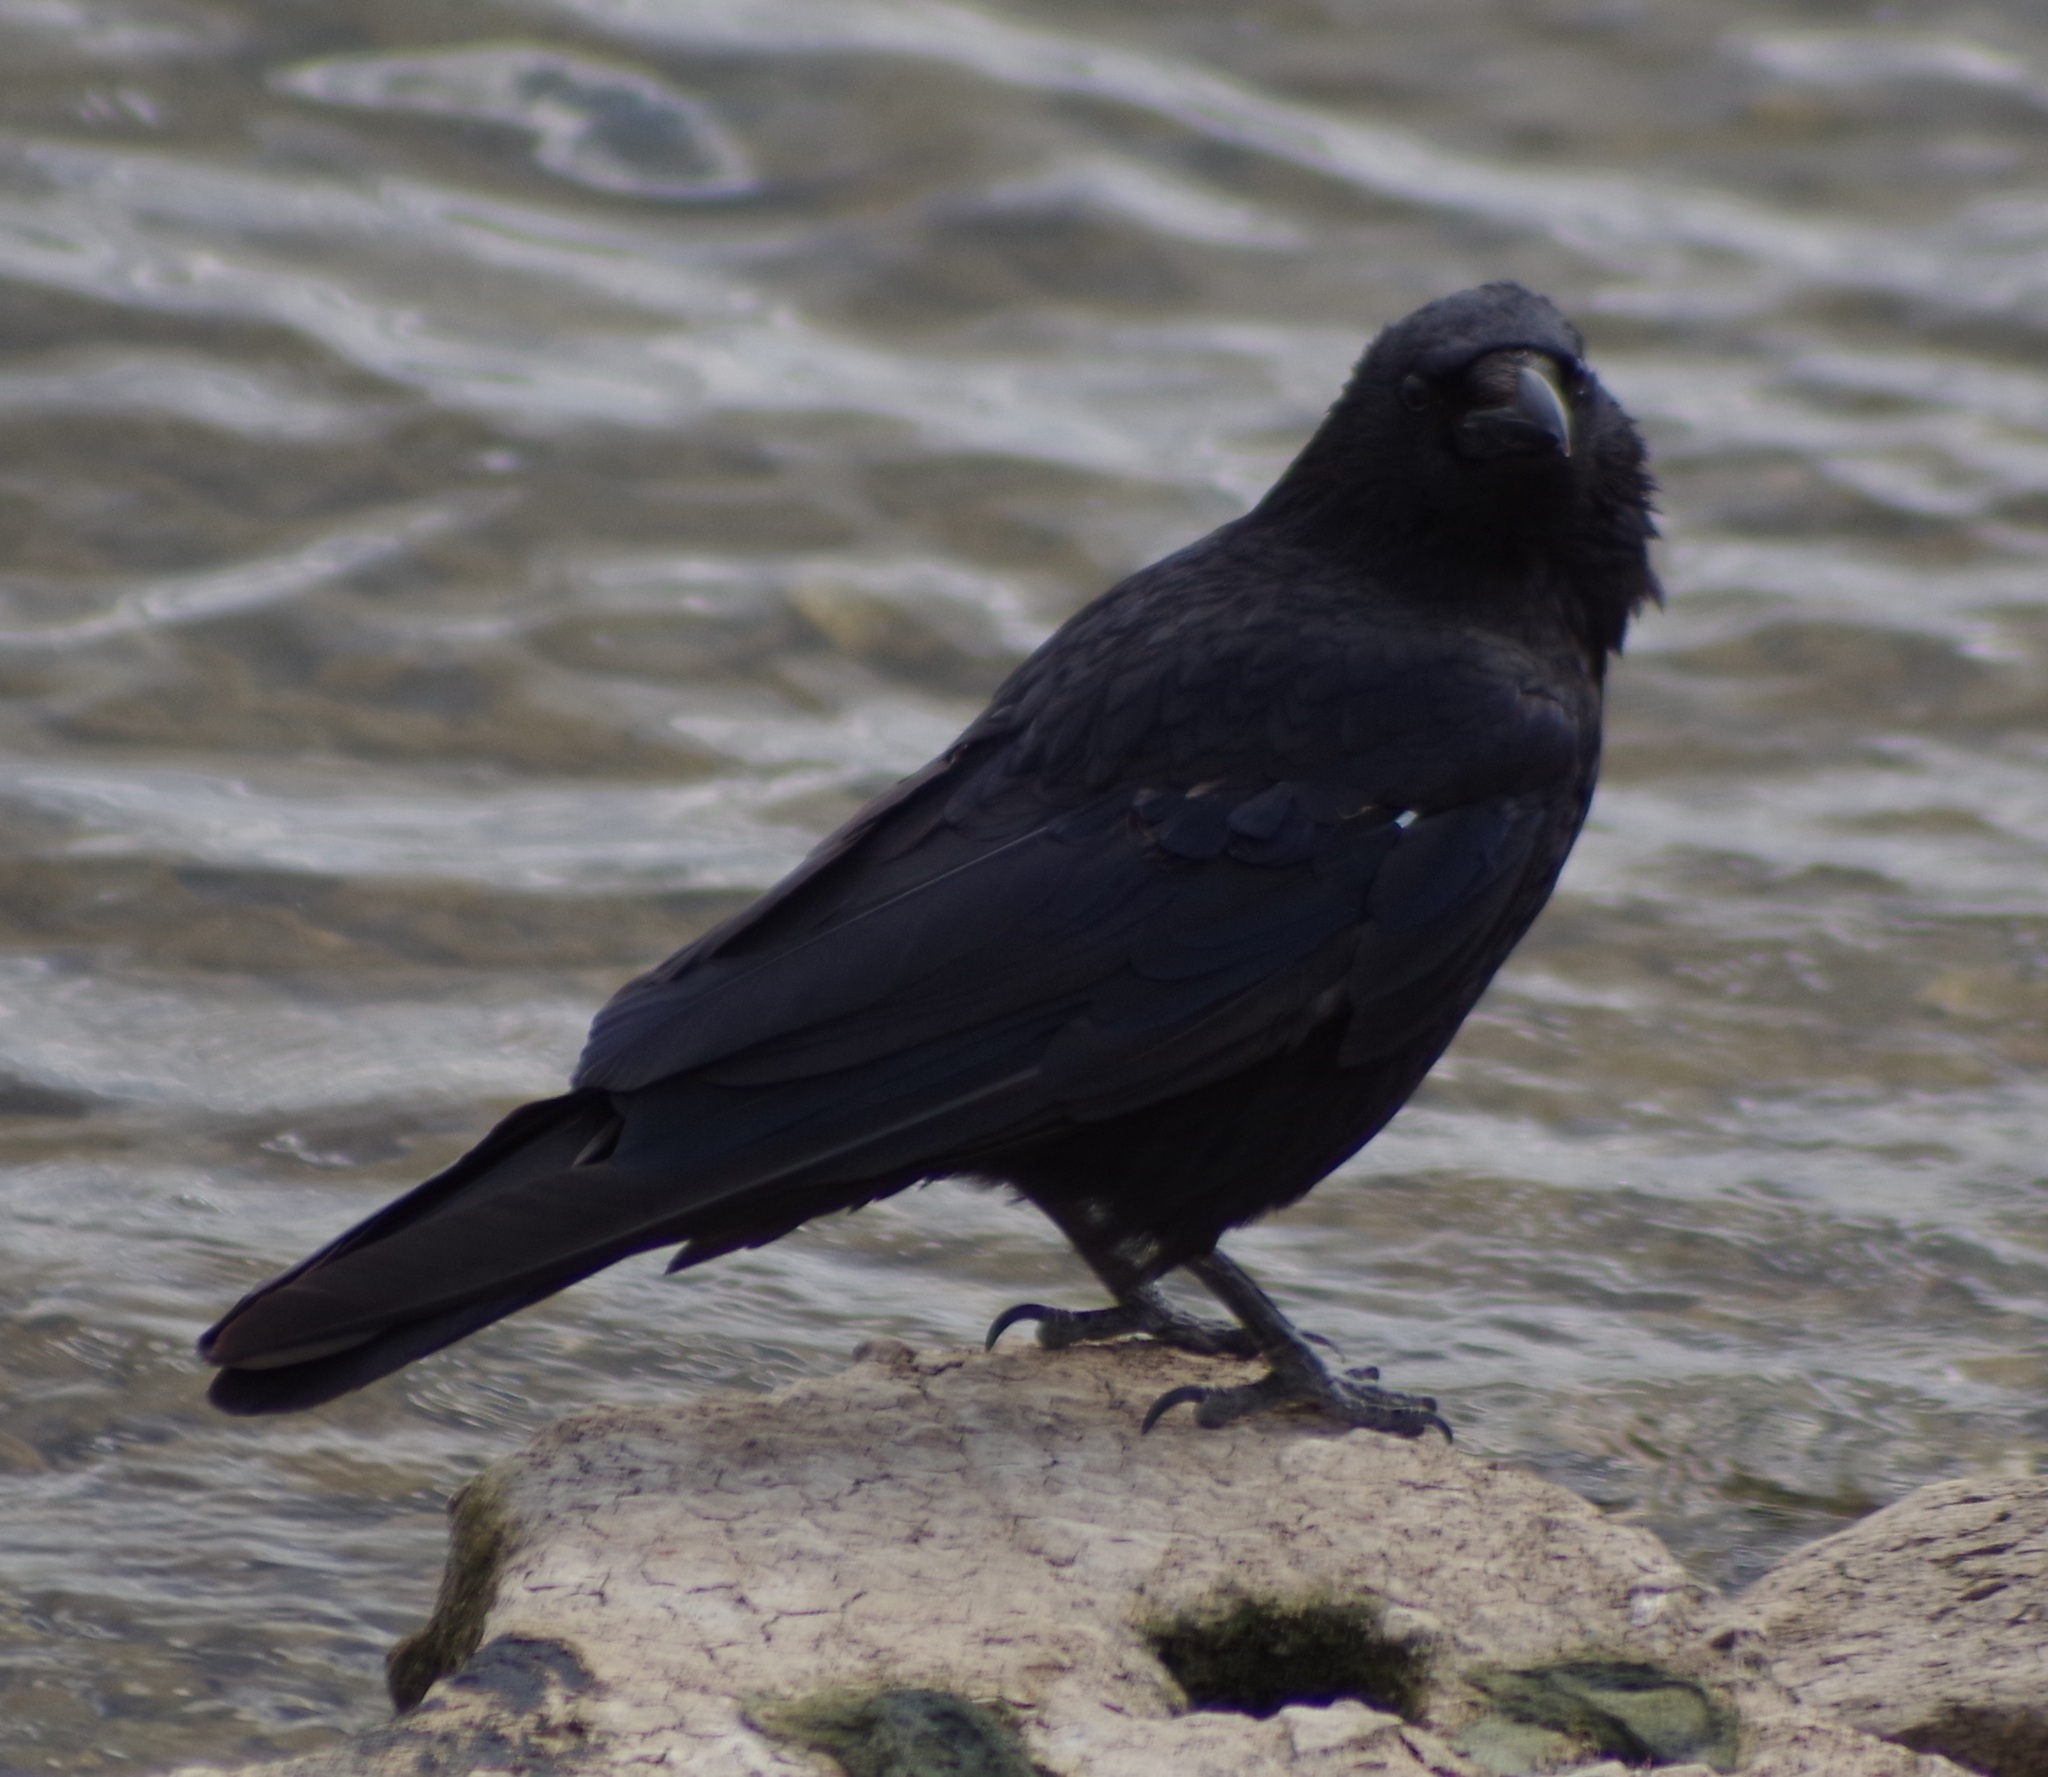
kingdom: Animalia
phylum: Chordata
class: Aves
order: Passeriformes
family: Corvidae
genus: Corvus
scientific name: Corvus corone
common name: Carrion crow
